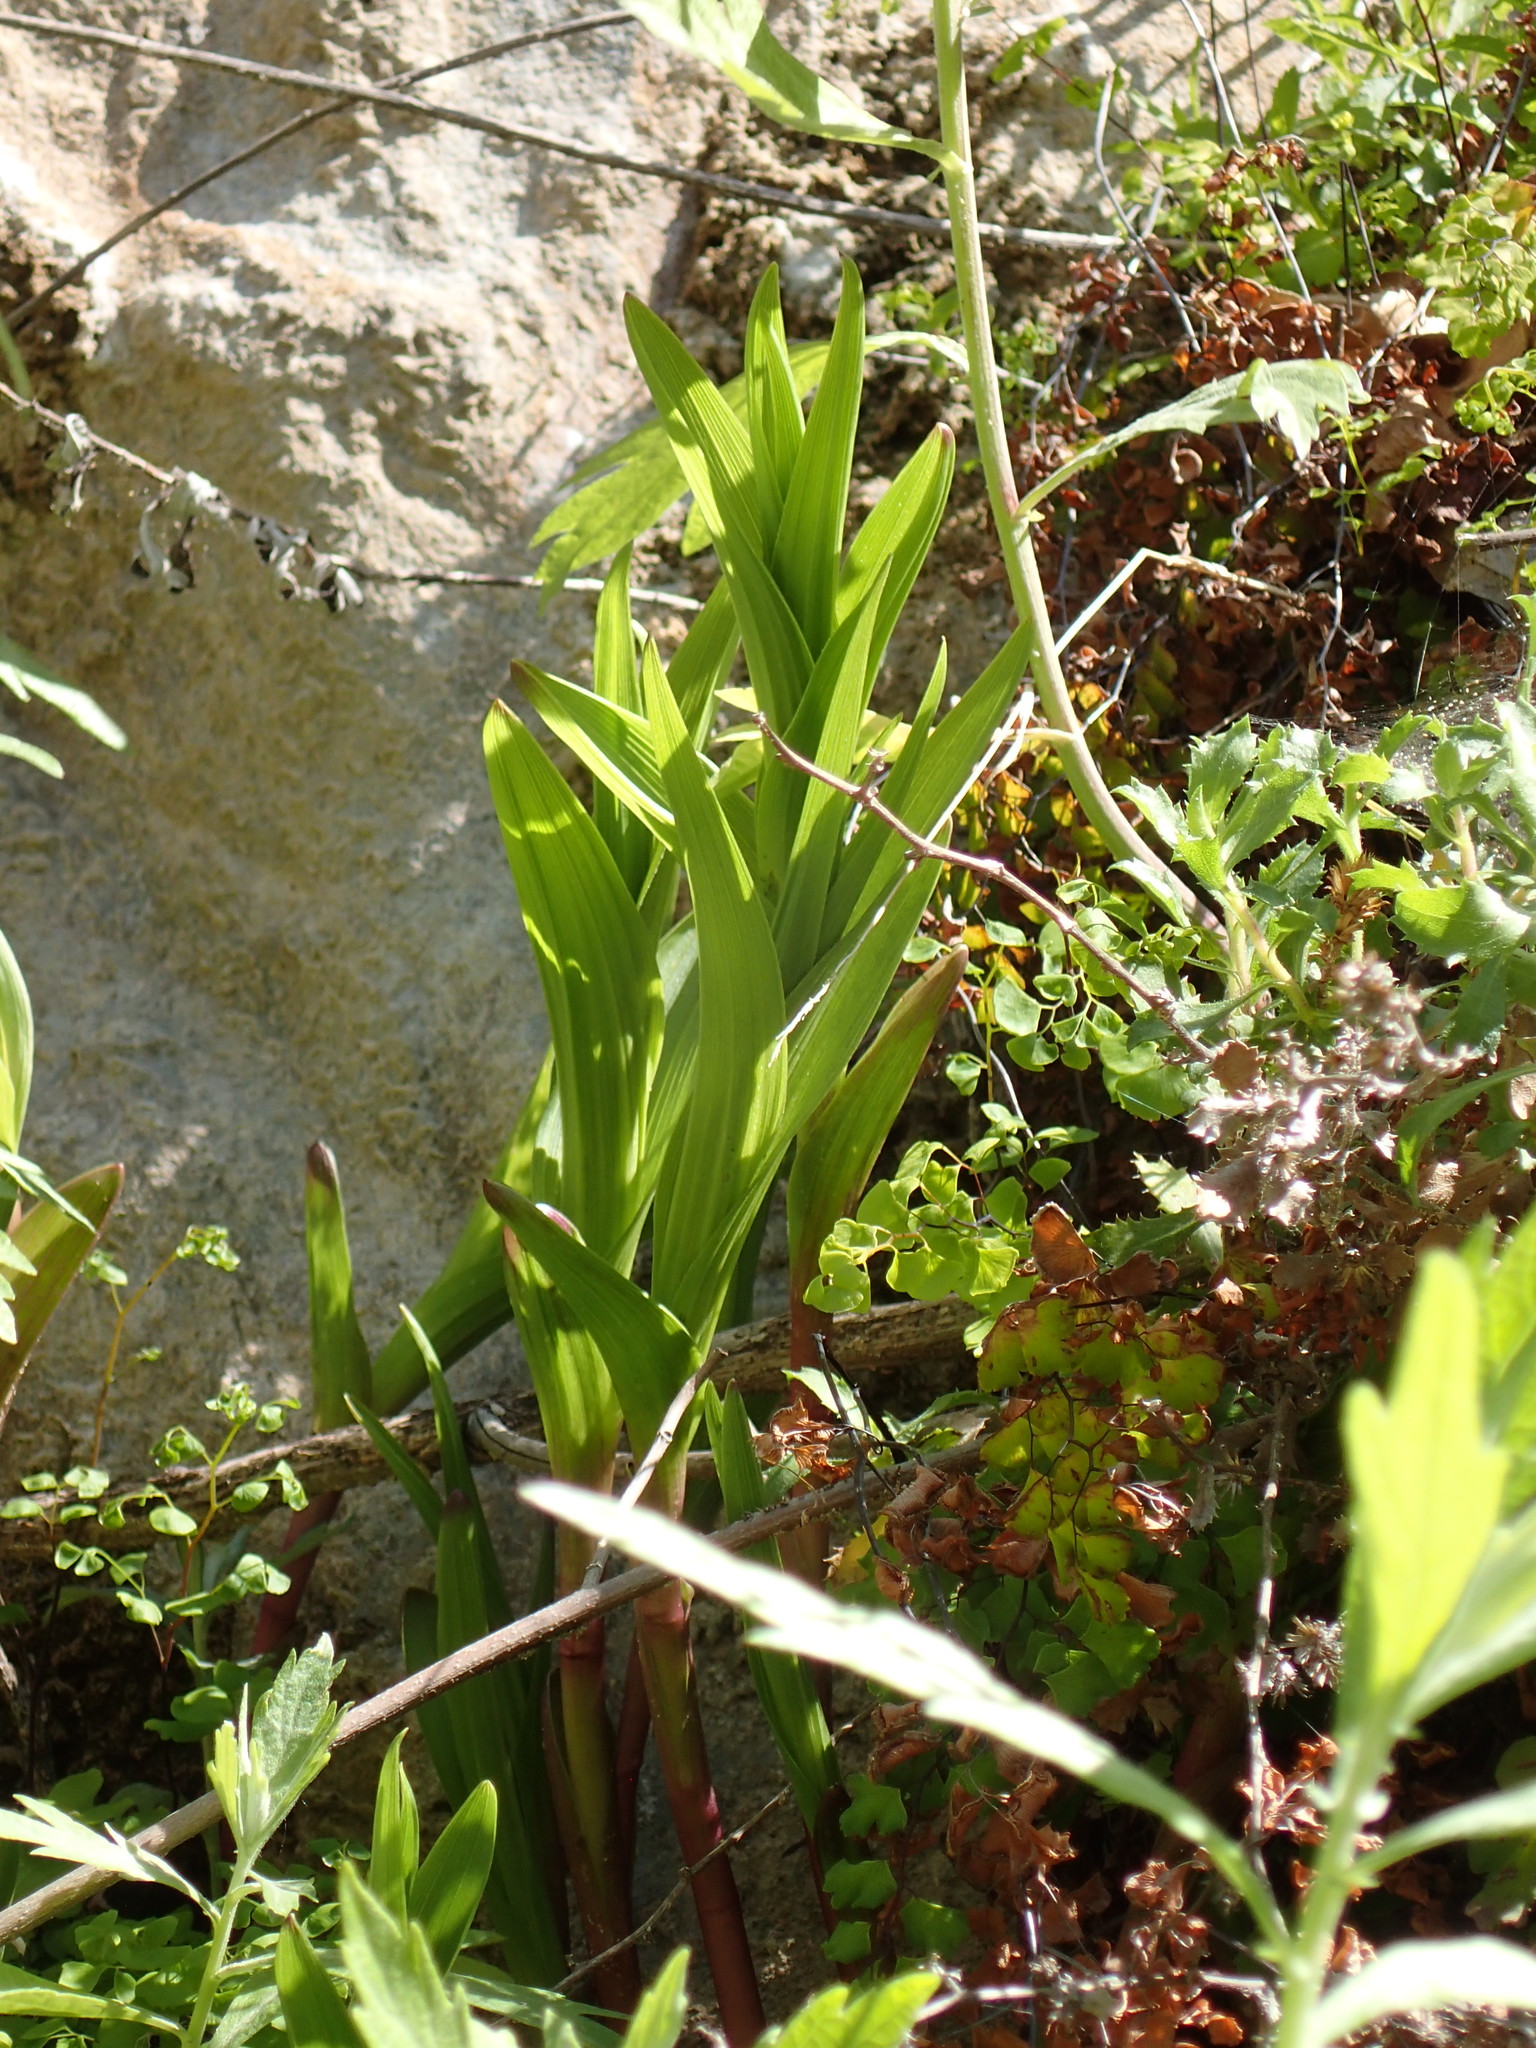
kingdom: Plantae
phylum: Tracheophyta
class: Liliopsida
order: Asparagales
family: Orchidaceae
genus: Epipactis
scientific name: Epipactis gigantea
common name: Chatterbox
